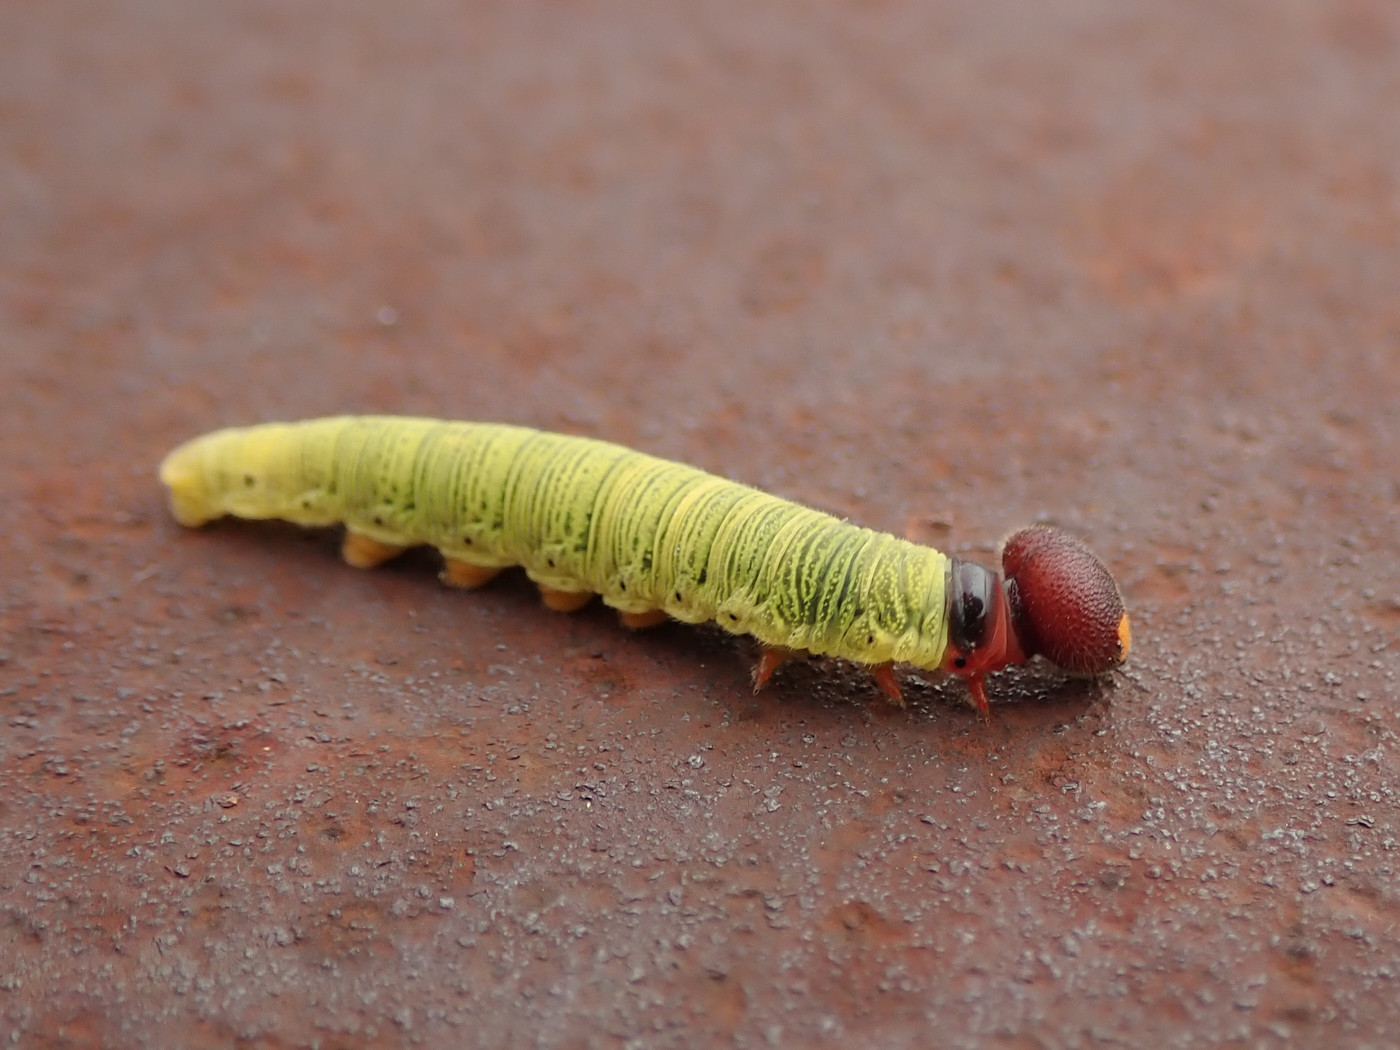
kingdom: Animalia
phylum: Arthropoda
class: Insecta
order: Lepidoptera
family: Hesperiidae
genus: Epargyreus
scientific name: Epargyreus clarus
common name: Silver-spotted skipper
